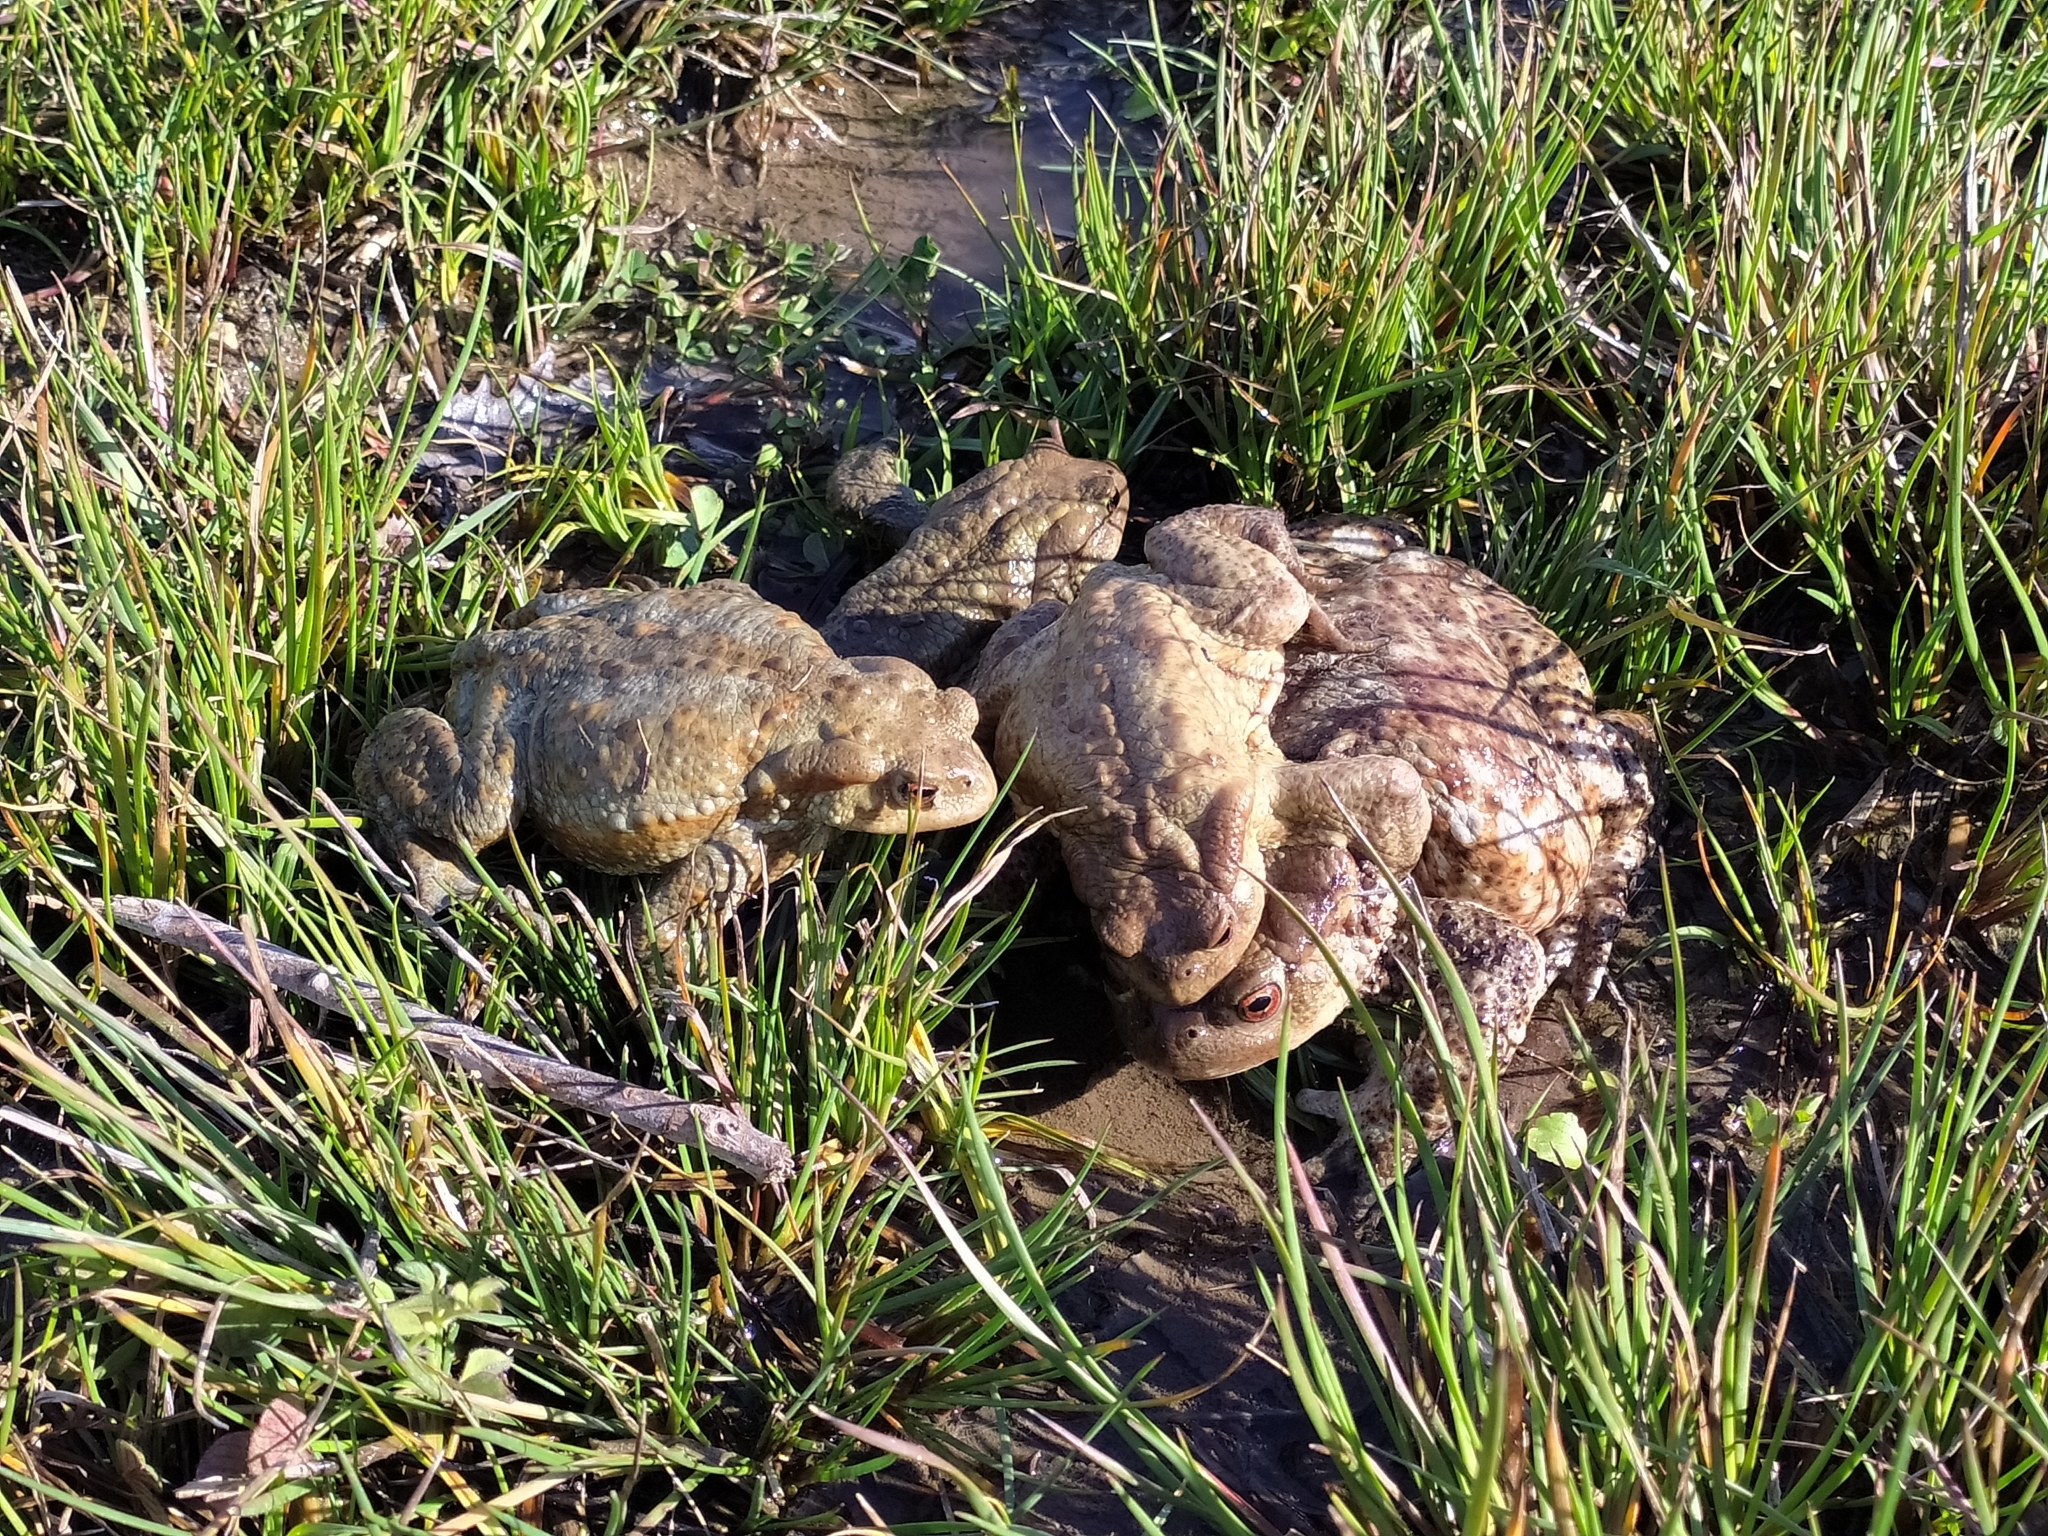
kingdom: Animalia
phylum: Chordata
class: Amphibia
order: Anura
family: Bufonidae
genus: Bufo
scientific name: Bufo bufo
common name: Common toad
